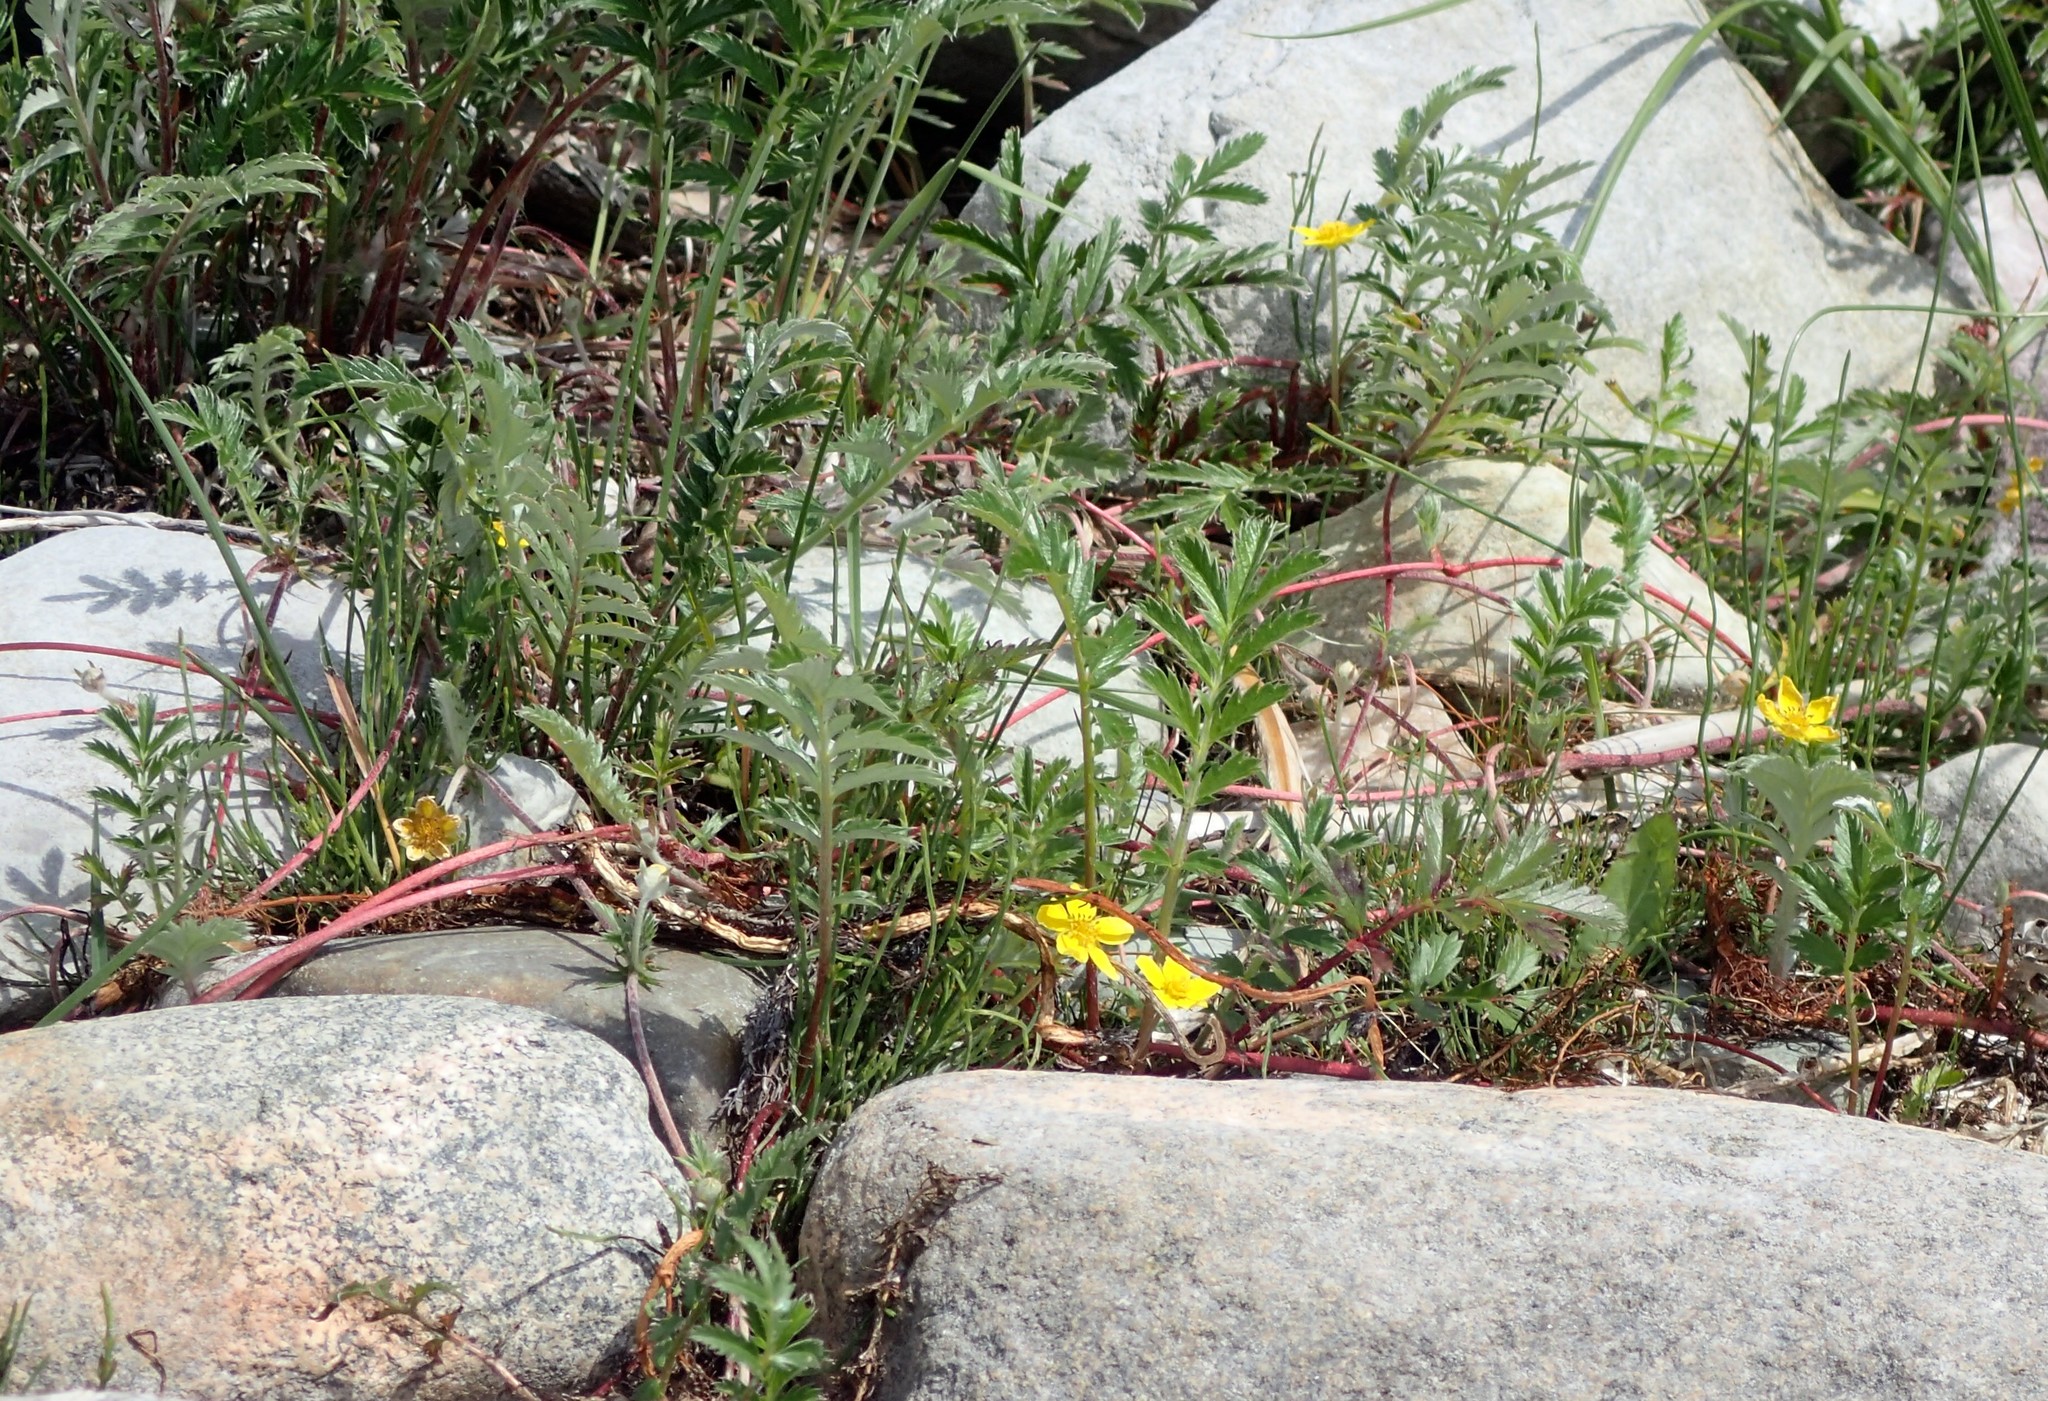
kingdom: Plantae
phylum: Tracheophyta
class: Magnoliopsida
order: Rosales
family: Rosaceae
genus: Argentina
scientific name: Argentina anserina
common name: Common silverweed
